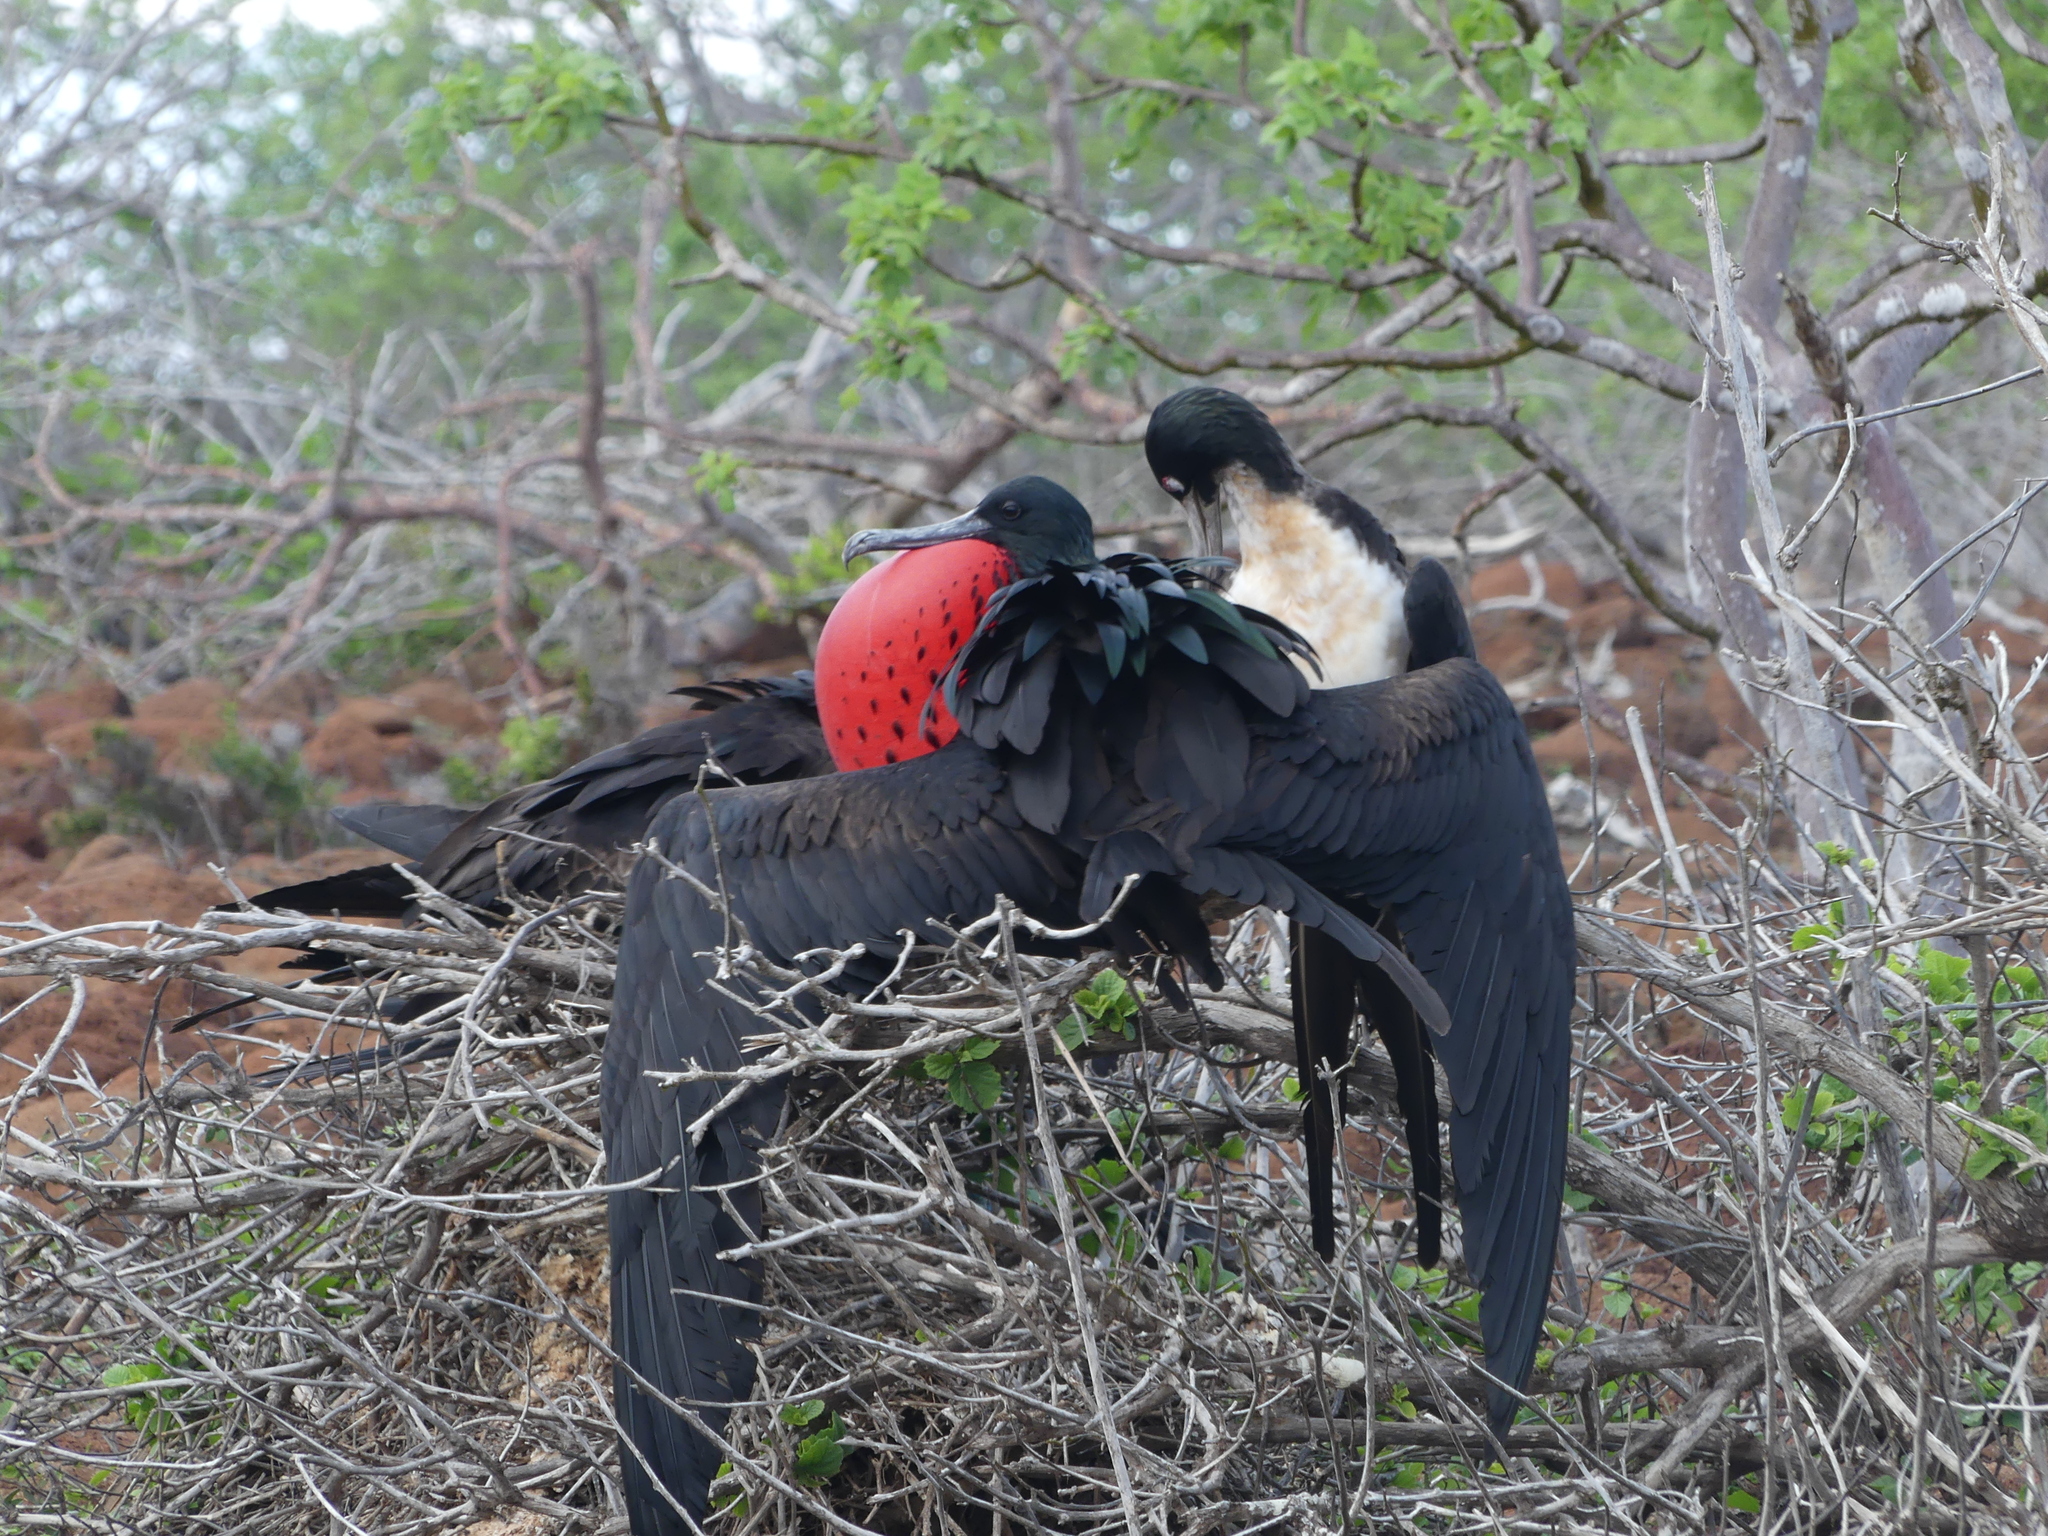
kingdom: Animalia
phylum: Chordata
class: Aves
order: Suliformes
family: Fregatidae
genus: Fregata
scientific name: Fregata minor
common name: Great frigatebird
